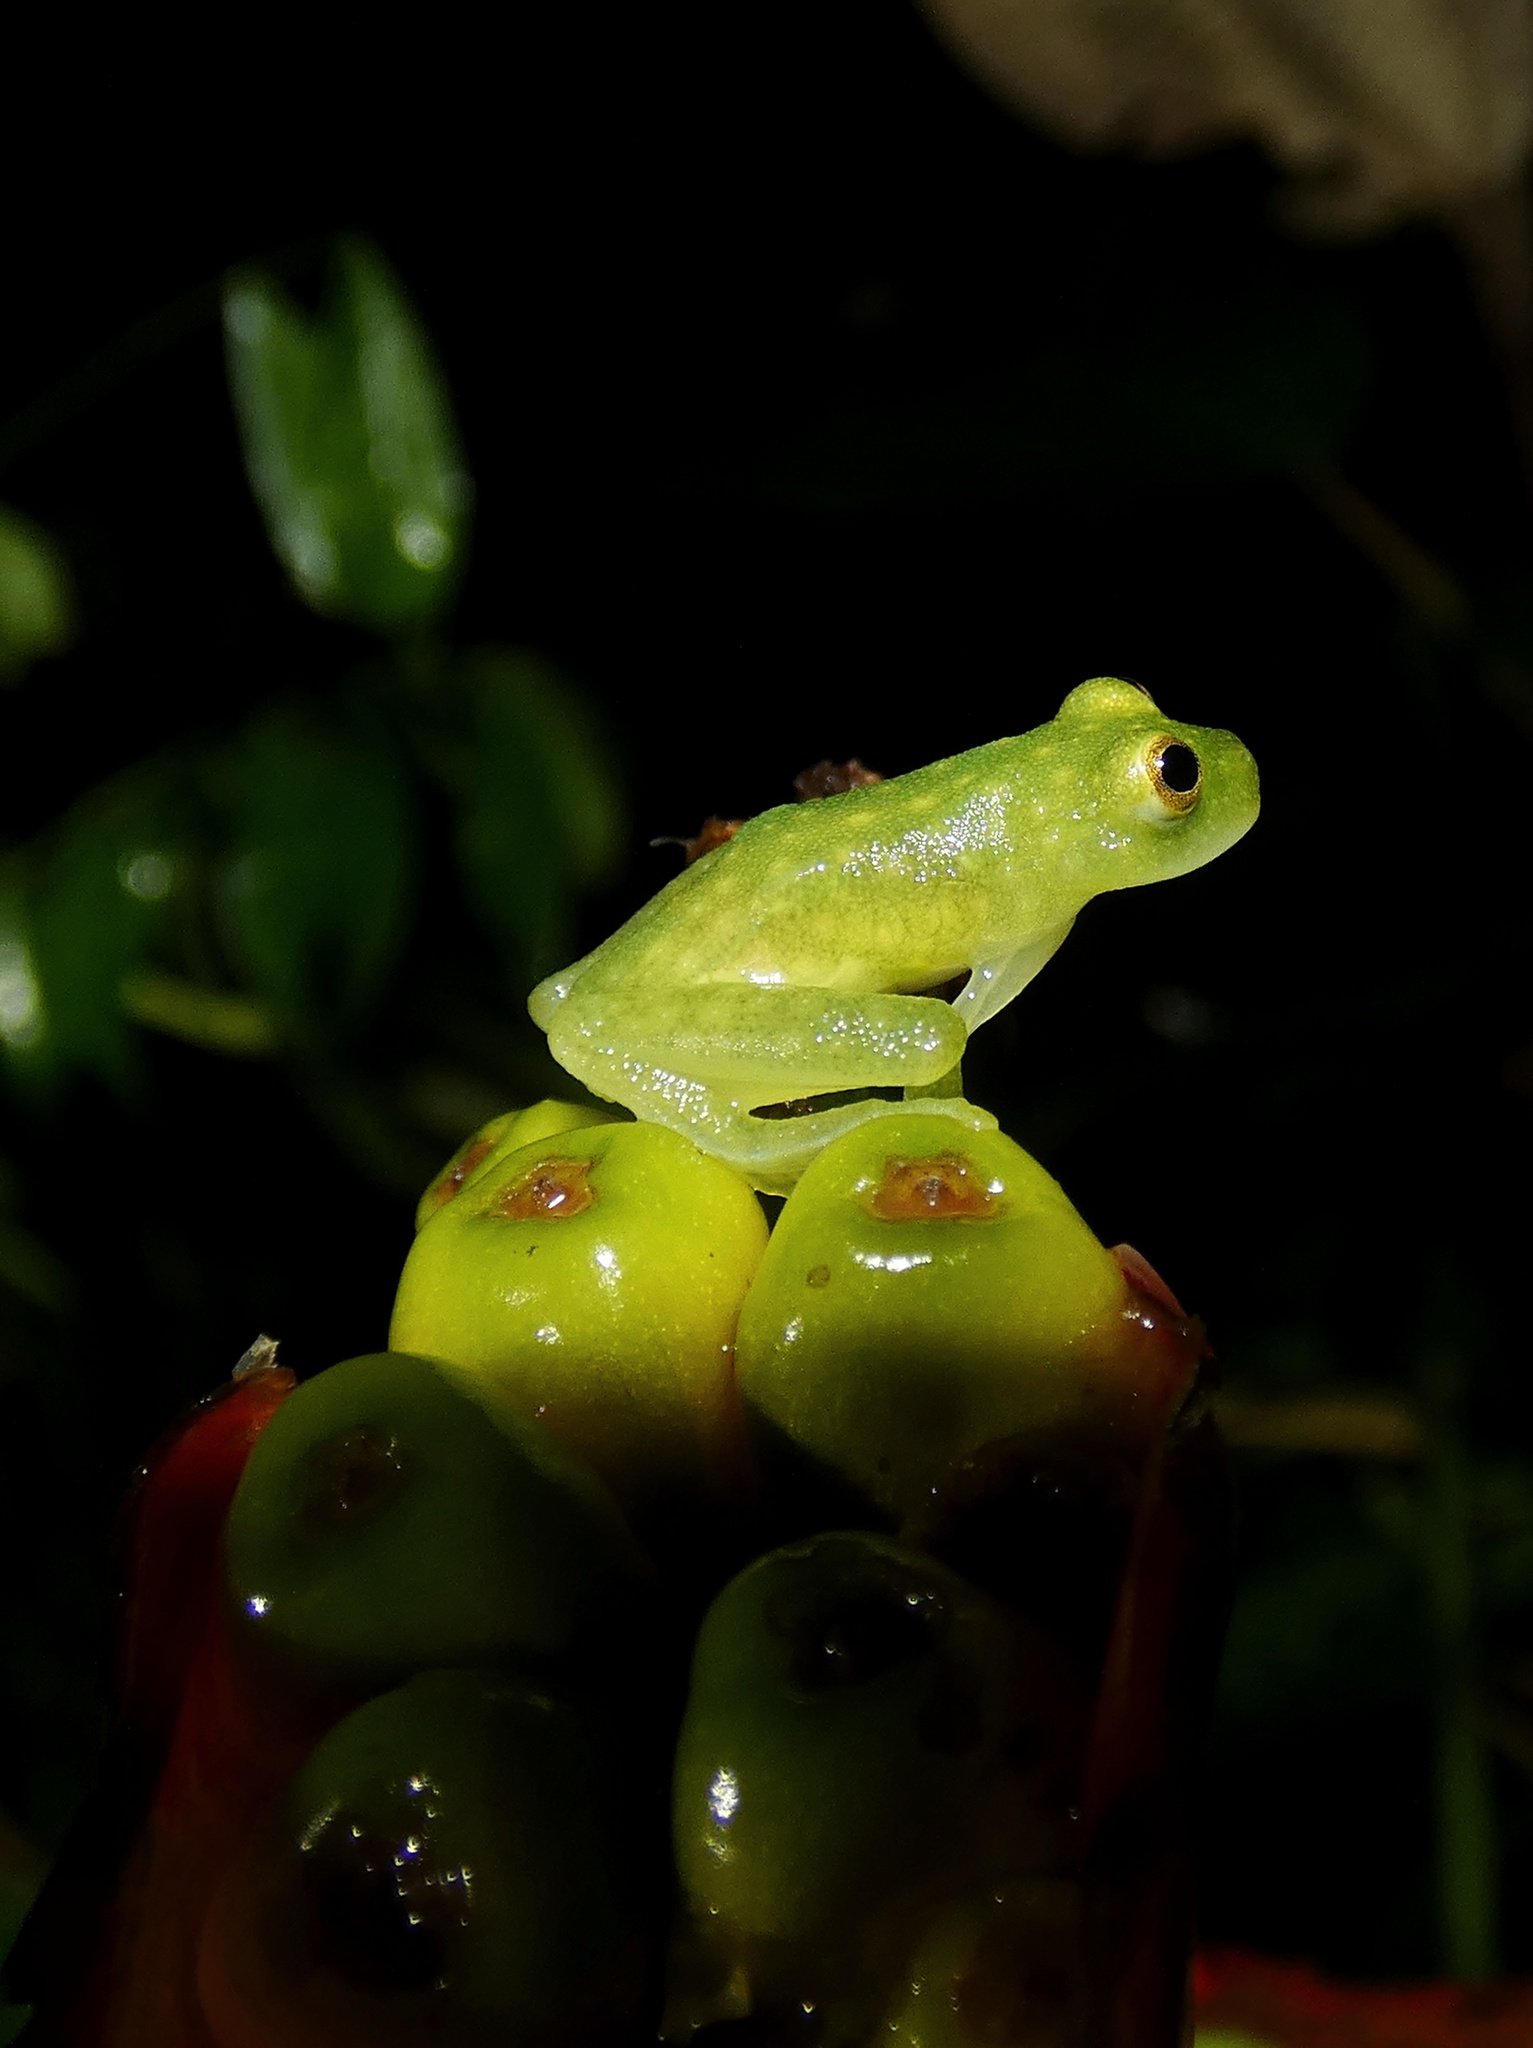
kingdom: Animalia
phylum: Chordata
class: Amphibia
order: Anura
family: Centrolenidae
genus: Hyalinobatrachium
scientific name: Hyalinobatrachium tatayoi
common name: Tatayo’s glass frog
